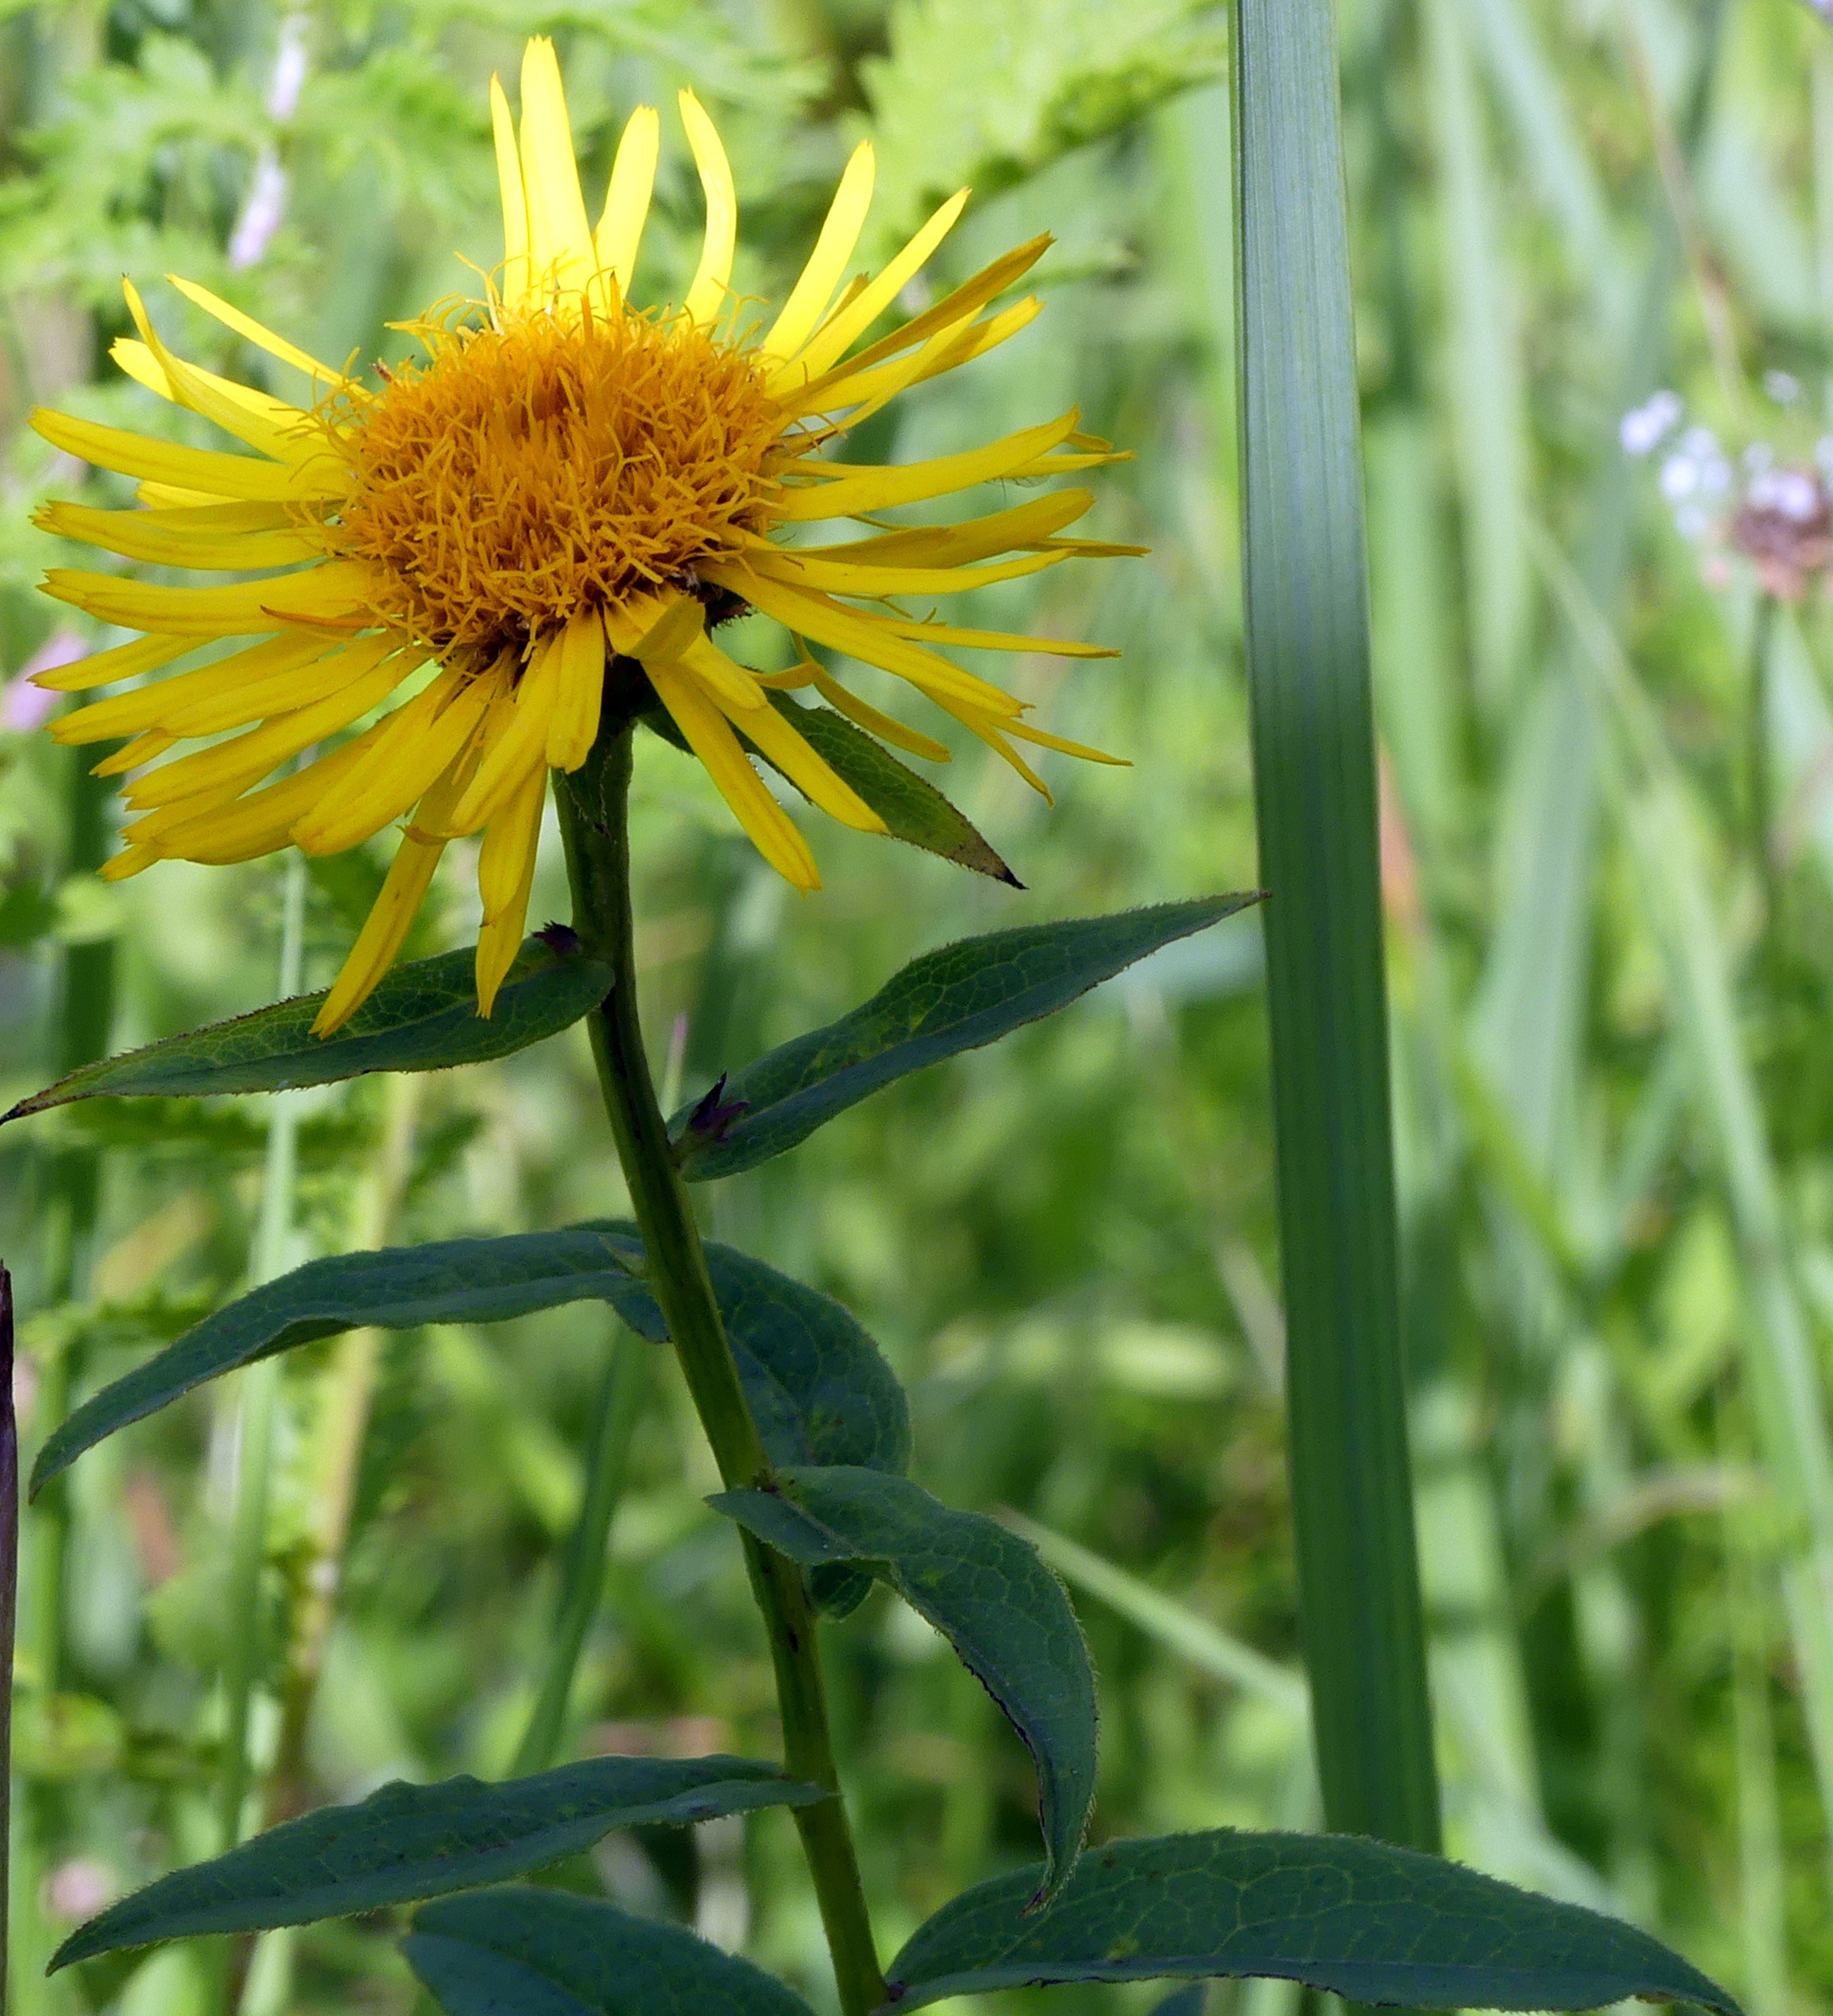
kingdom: Plantae
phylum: Tracheophyta
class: Magnoliopsida
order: Asterales
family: Asteraceae
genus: Pentanema
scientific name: Pentanema salicinum
